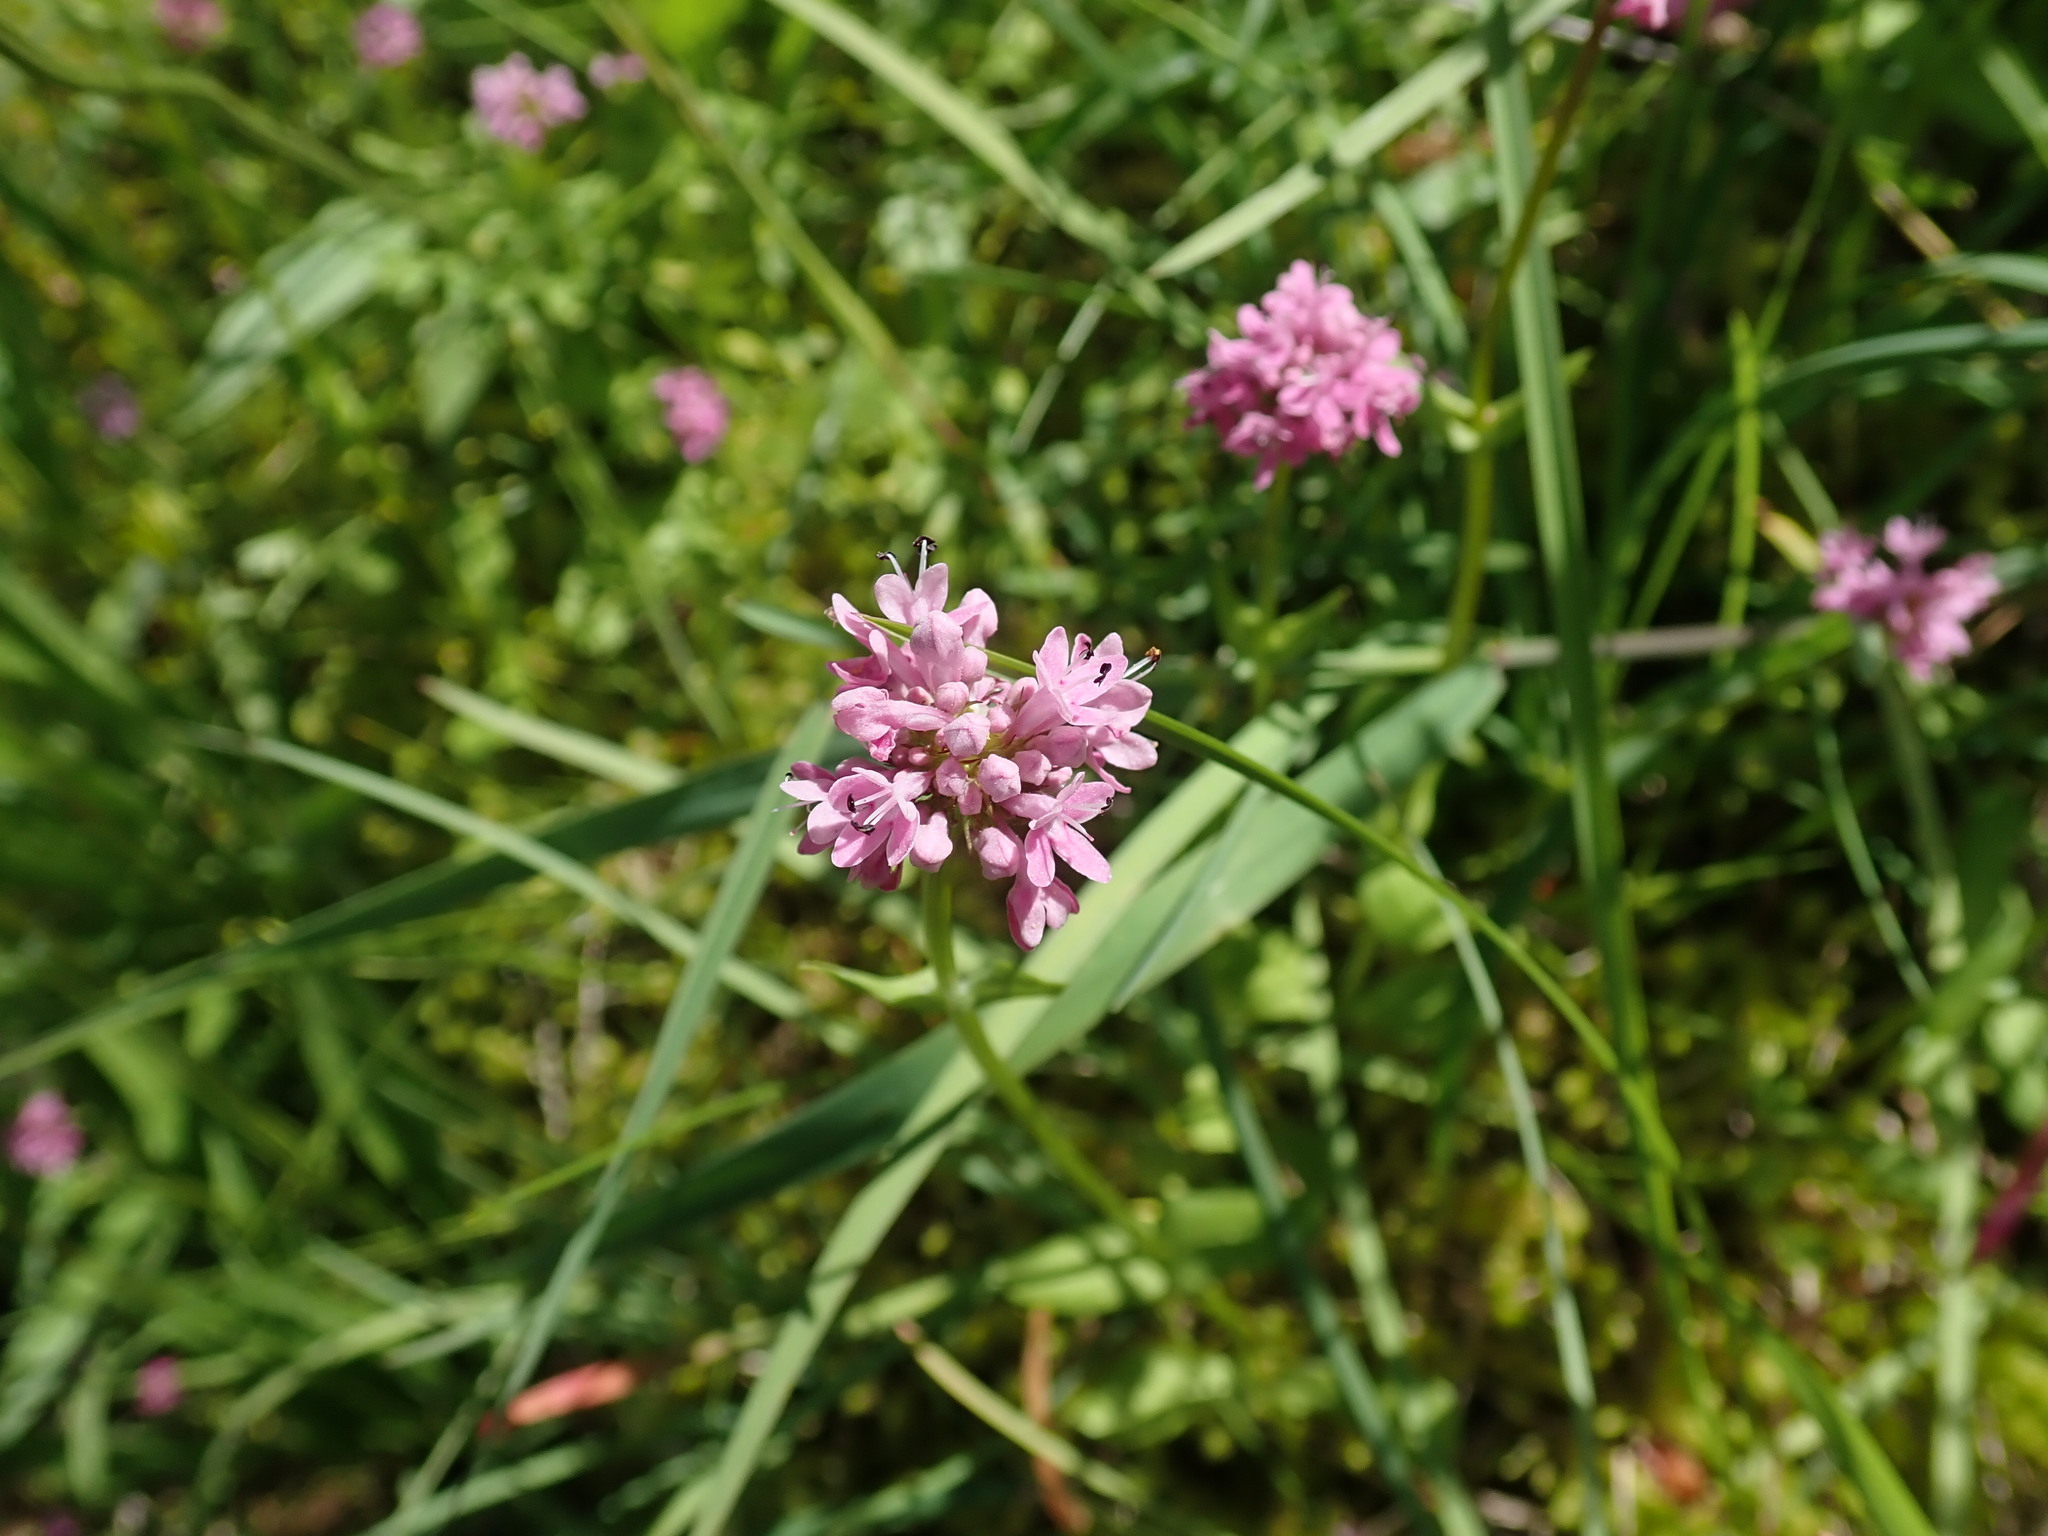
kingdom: Plantae
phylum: Tracheophyta
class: Magnoliopsida
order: Dipsacales
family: Caprifoliaceae
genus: Plectritis
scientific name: Plectritis congesta
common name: Pink plectritis
